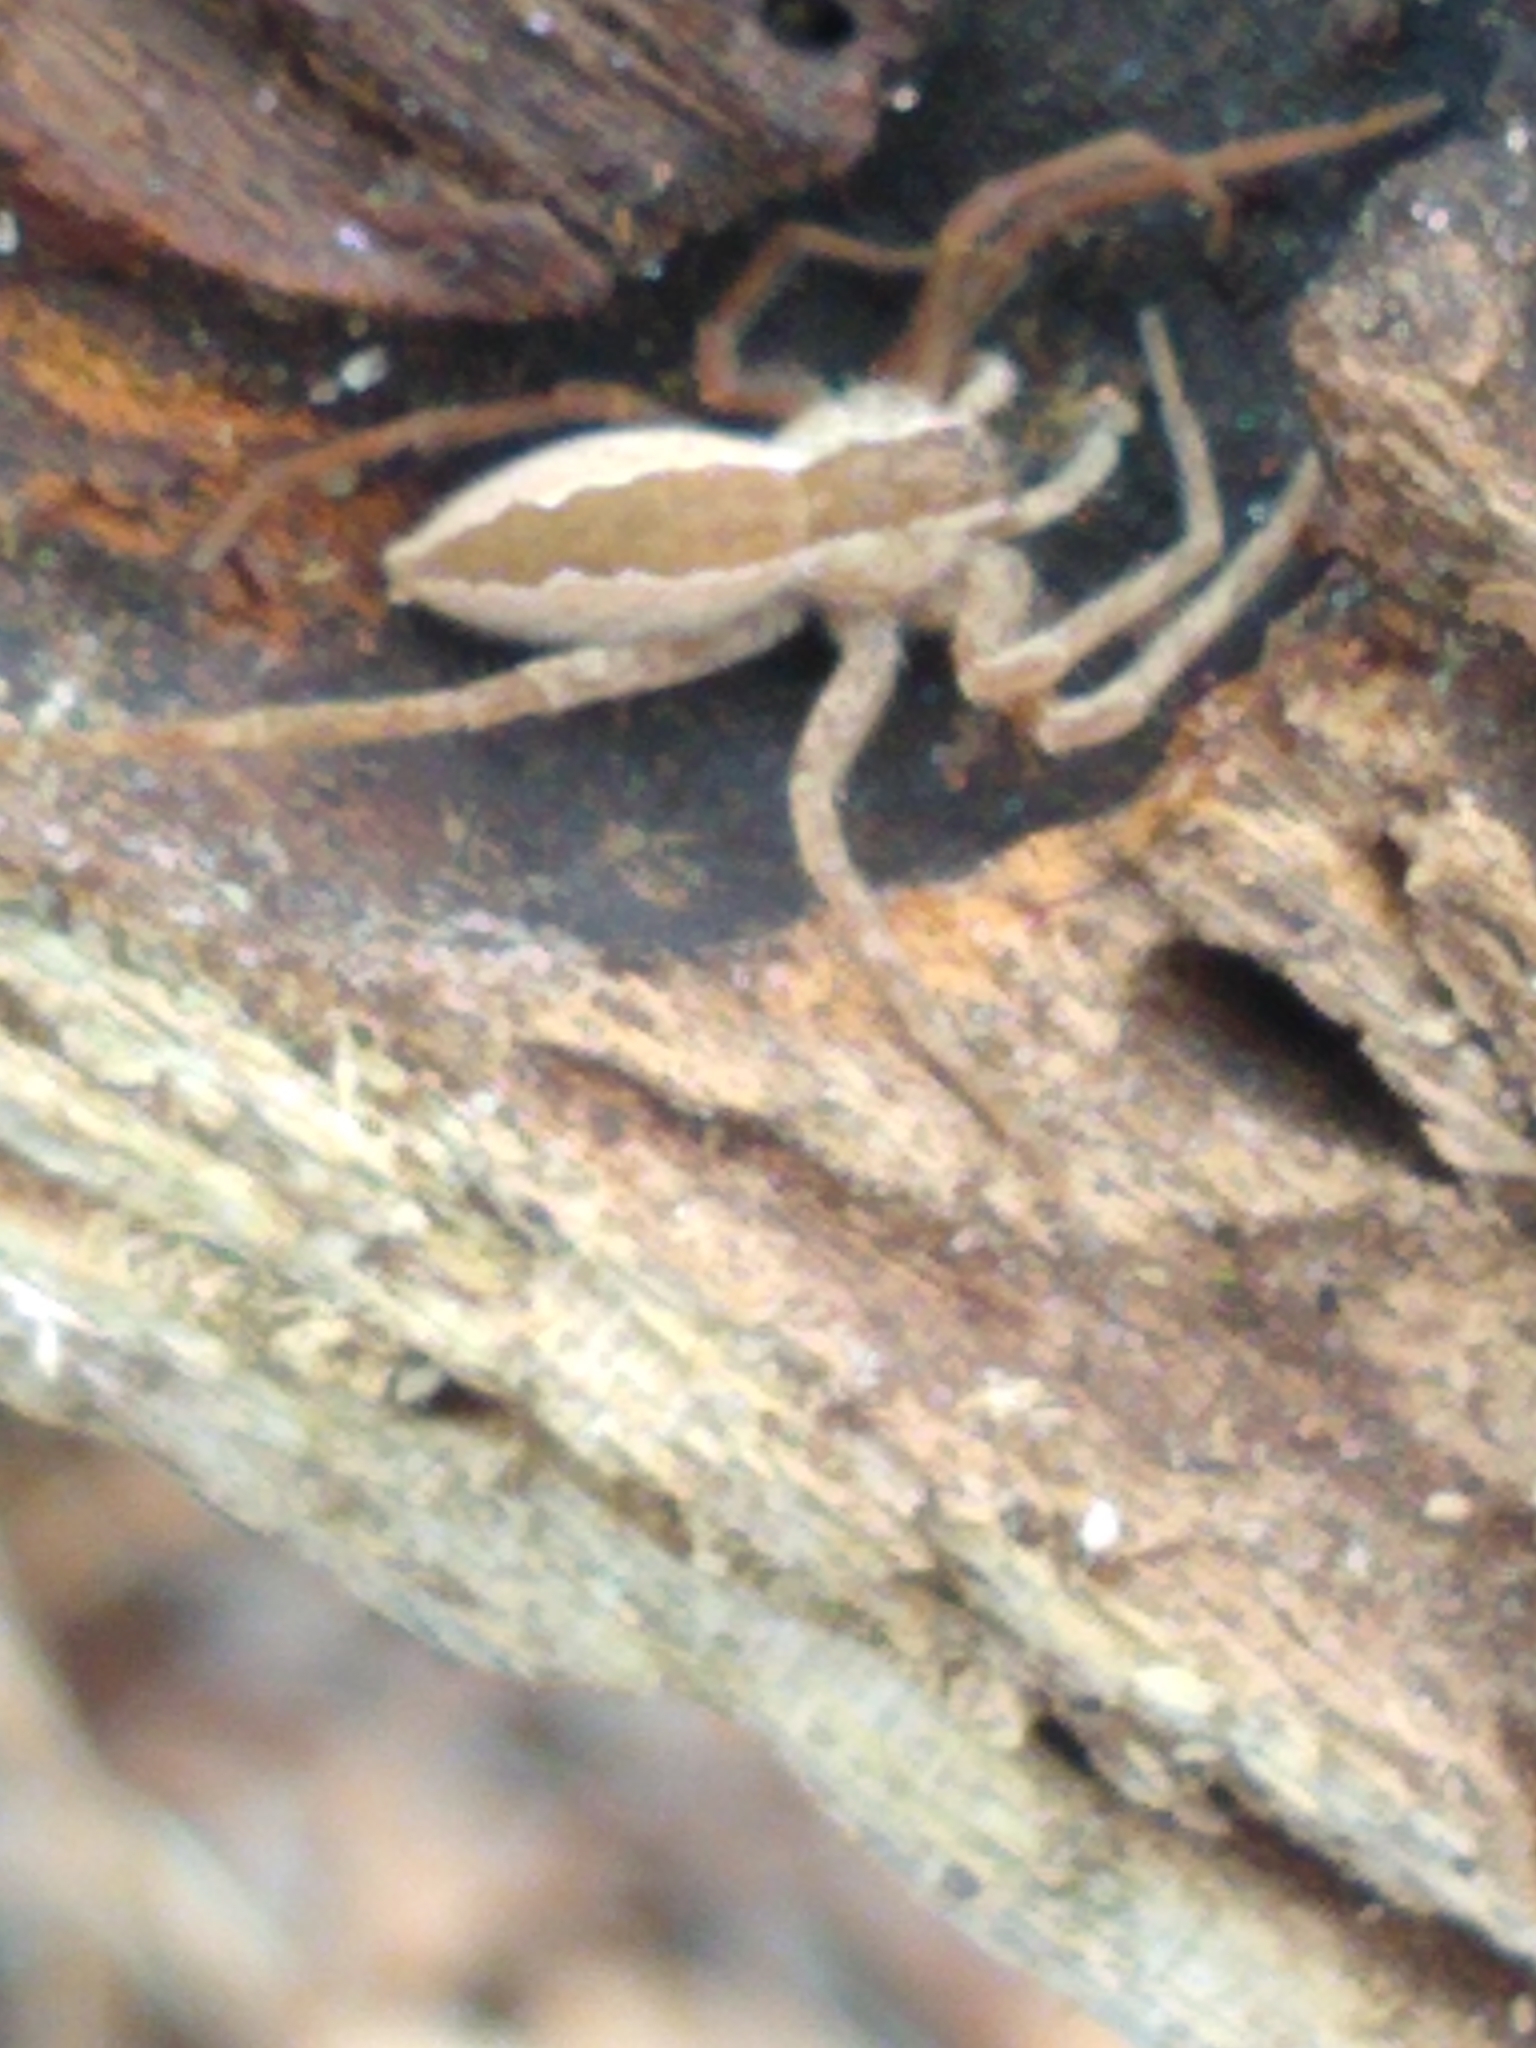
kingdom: Animalia
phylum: Arthropoda
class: Arachnida
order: Araneae
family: Pisauridae
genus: Pisaurina
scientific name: Pisaurina mira
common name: American nursery web spider
